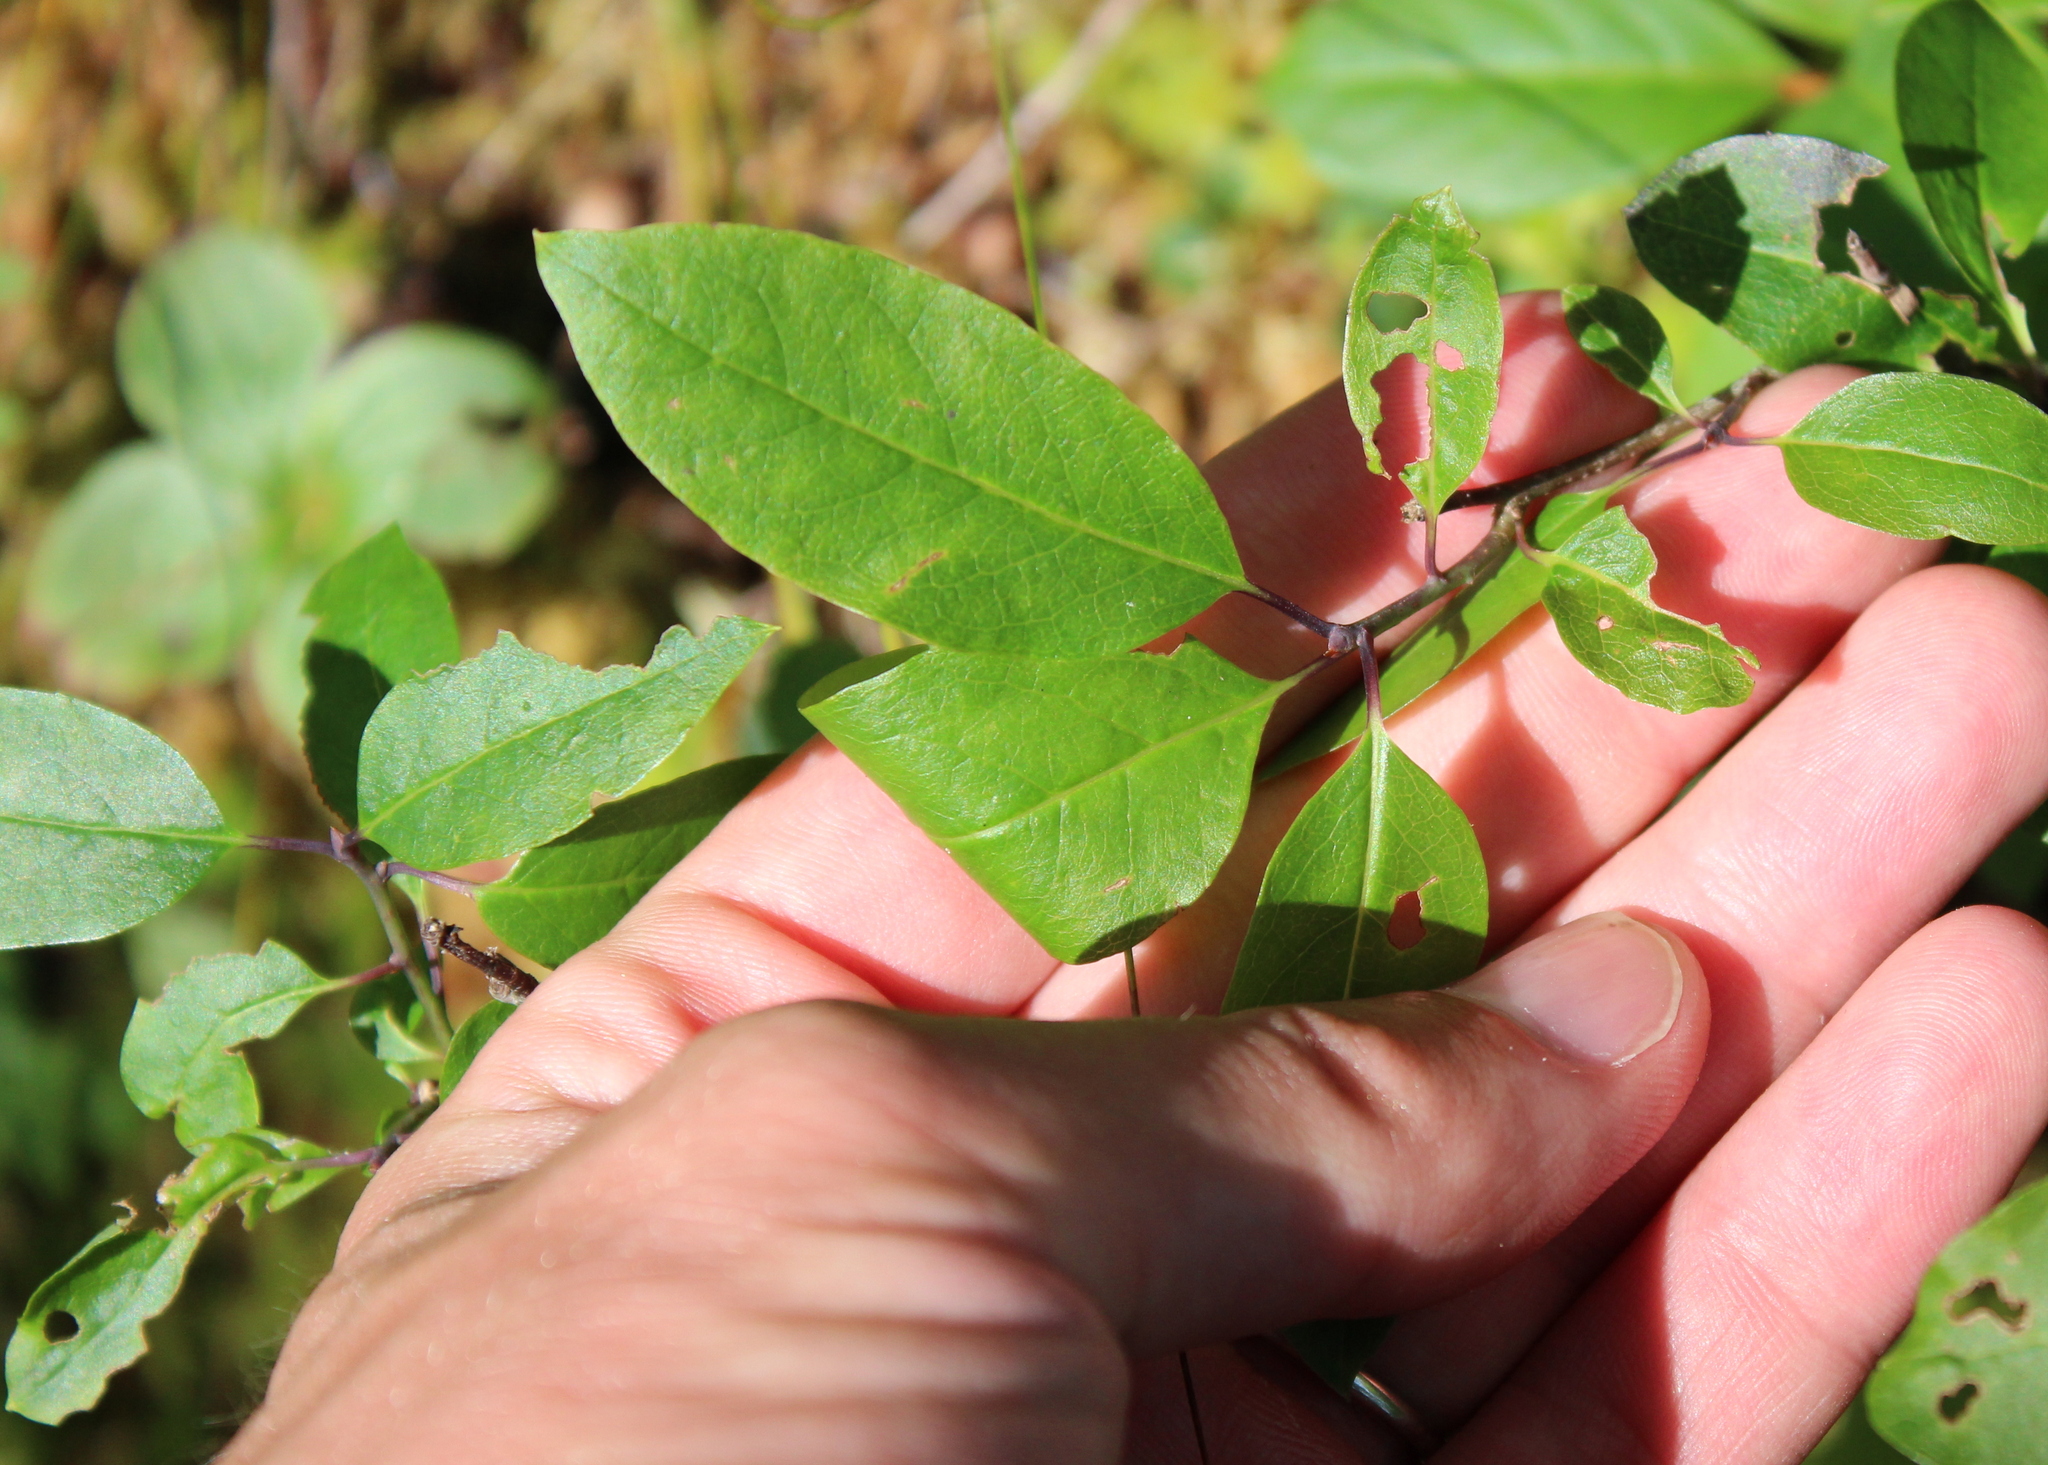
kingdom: Plantae
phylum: Tracheophyta
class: Magnoliopsida
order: Aquifoliales
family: Aquifoliaceae
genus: Ilex
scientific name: Ilex mucronata
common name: Catberry
